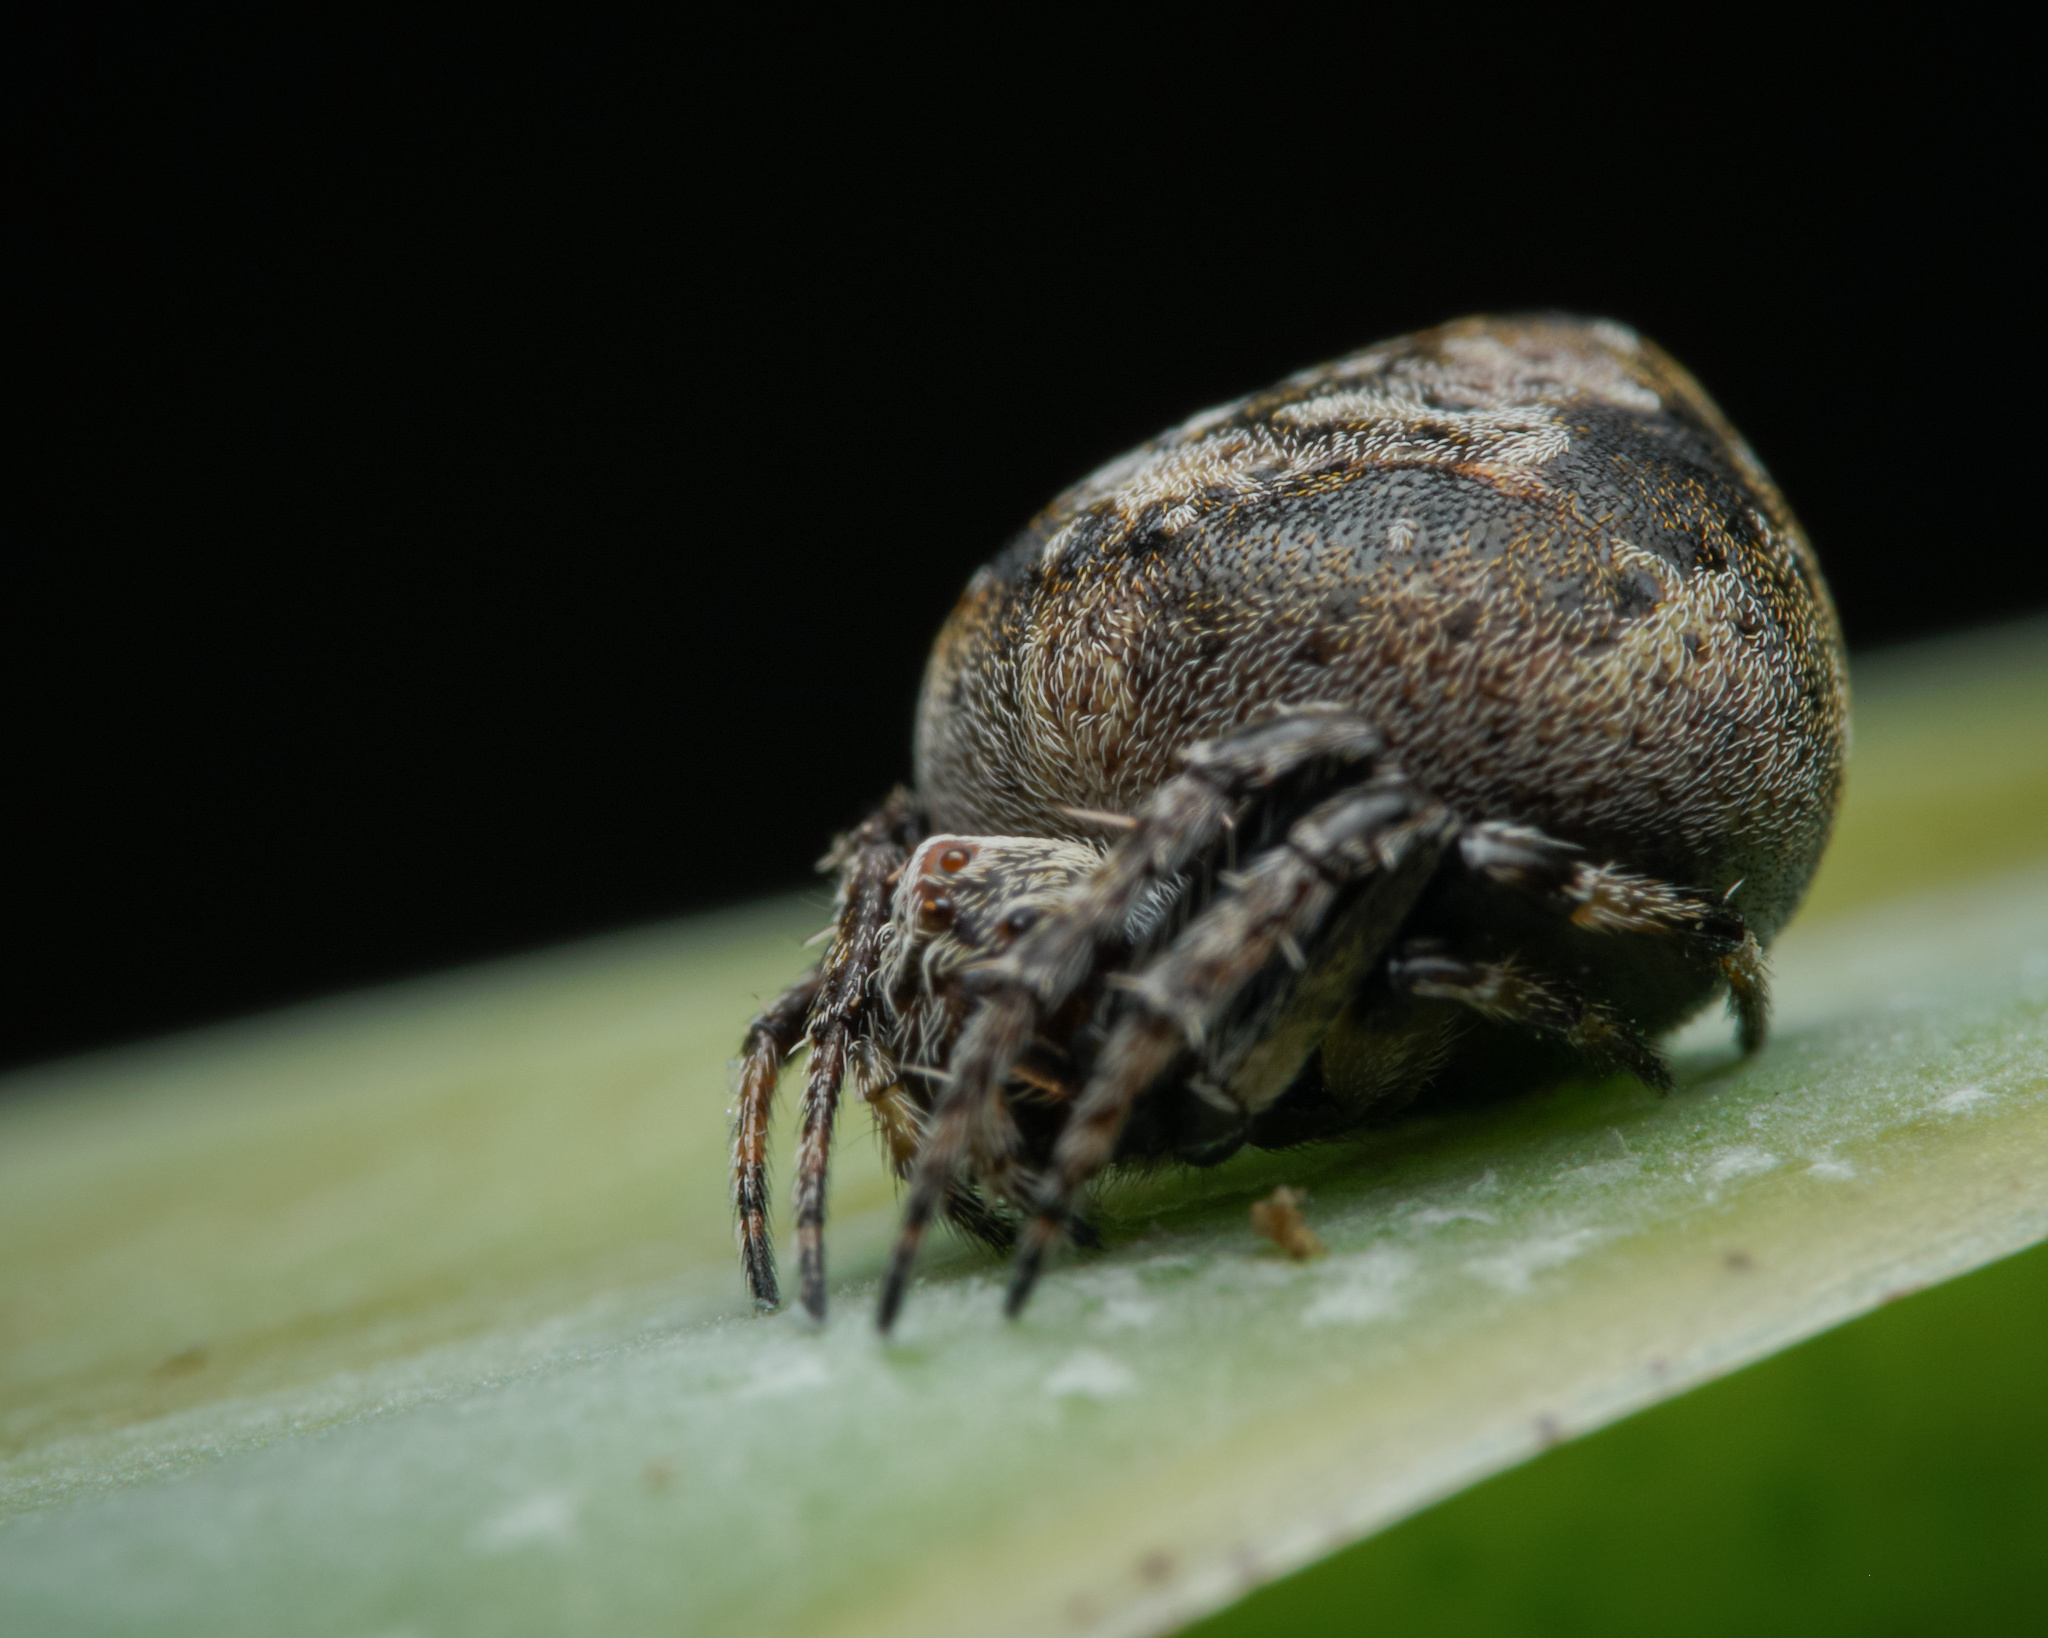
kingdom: Animalia
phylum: Arthropoda
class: Arachnida
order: Araneae
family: Araneidae
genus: Eriovixia
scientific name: Eriovixia excelsa
